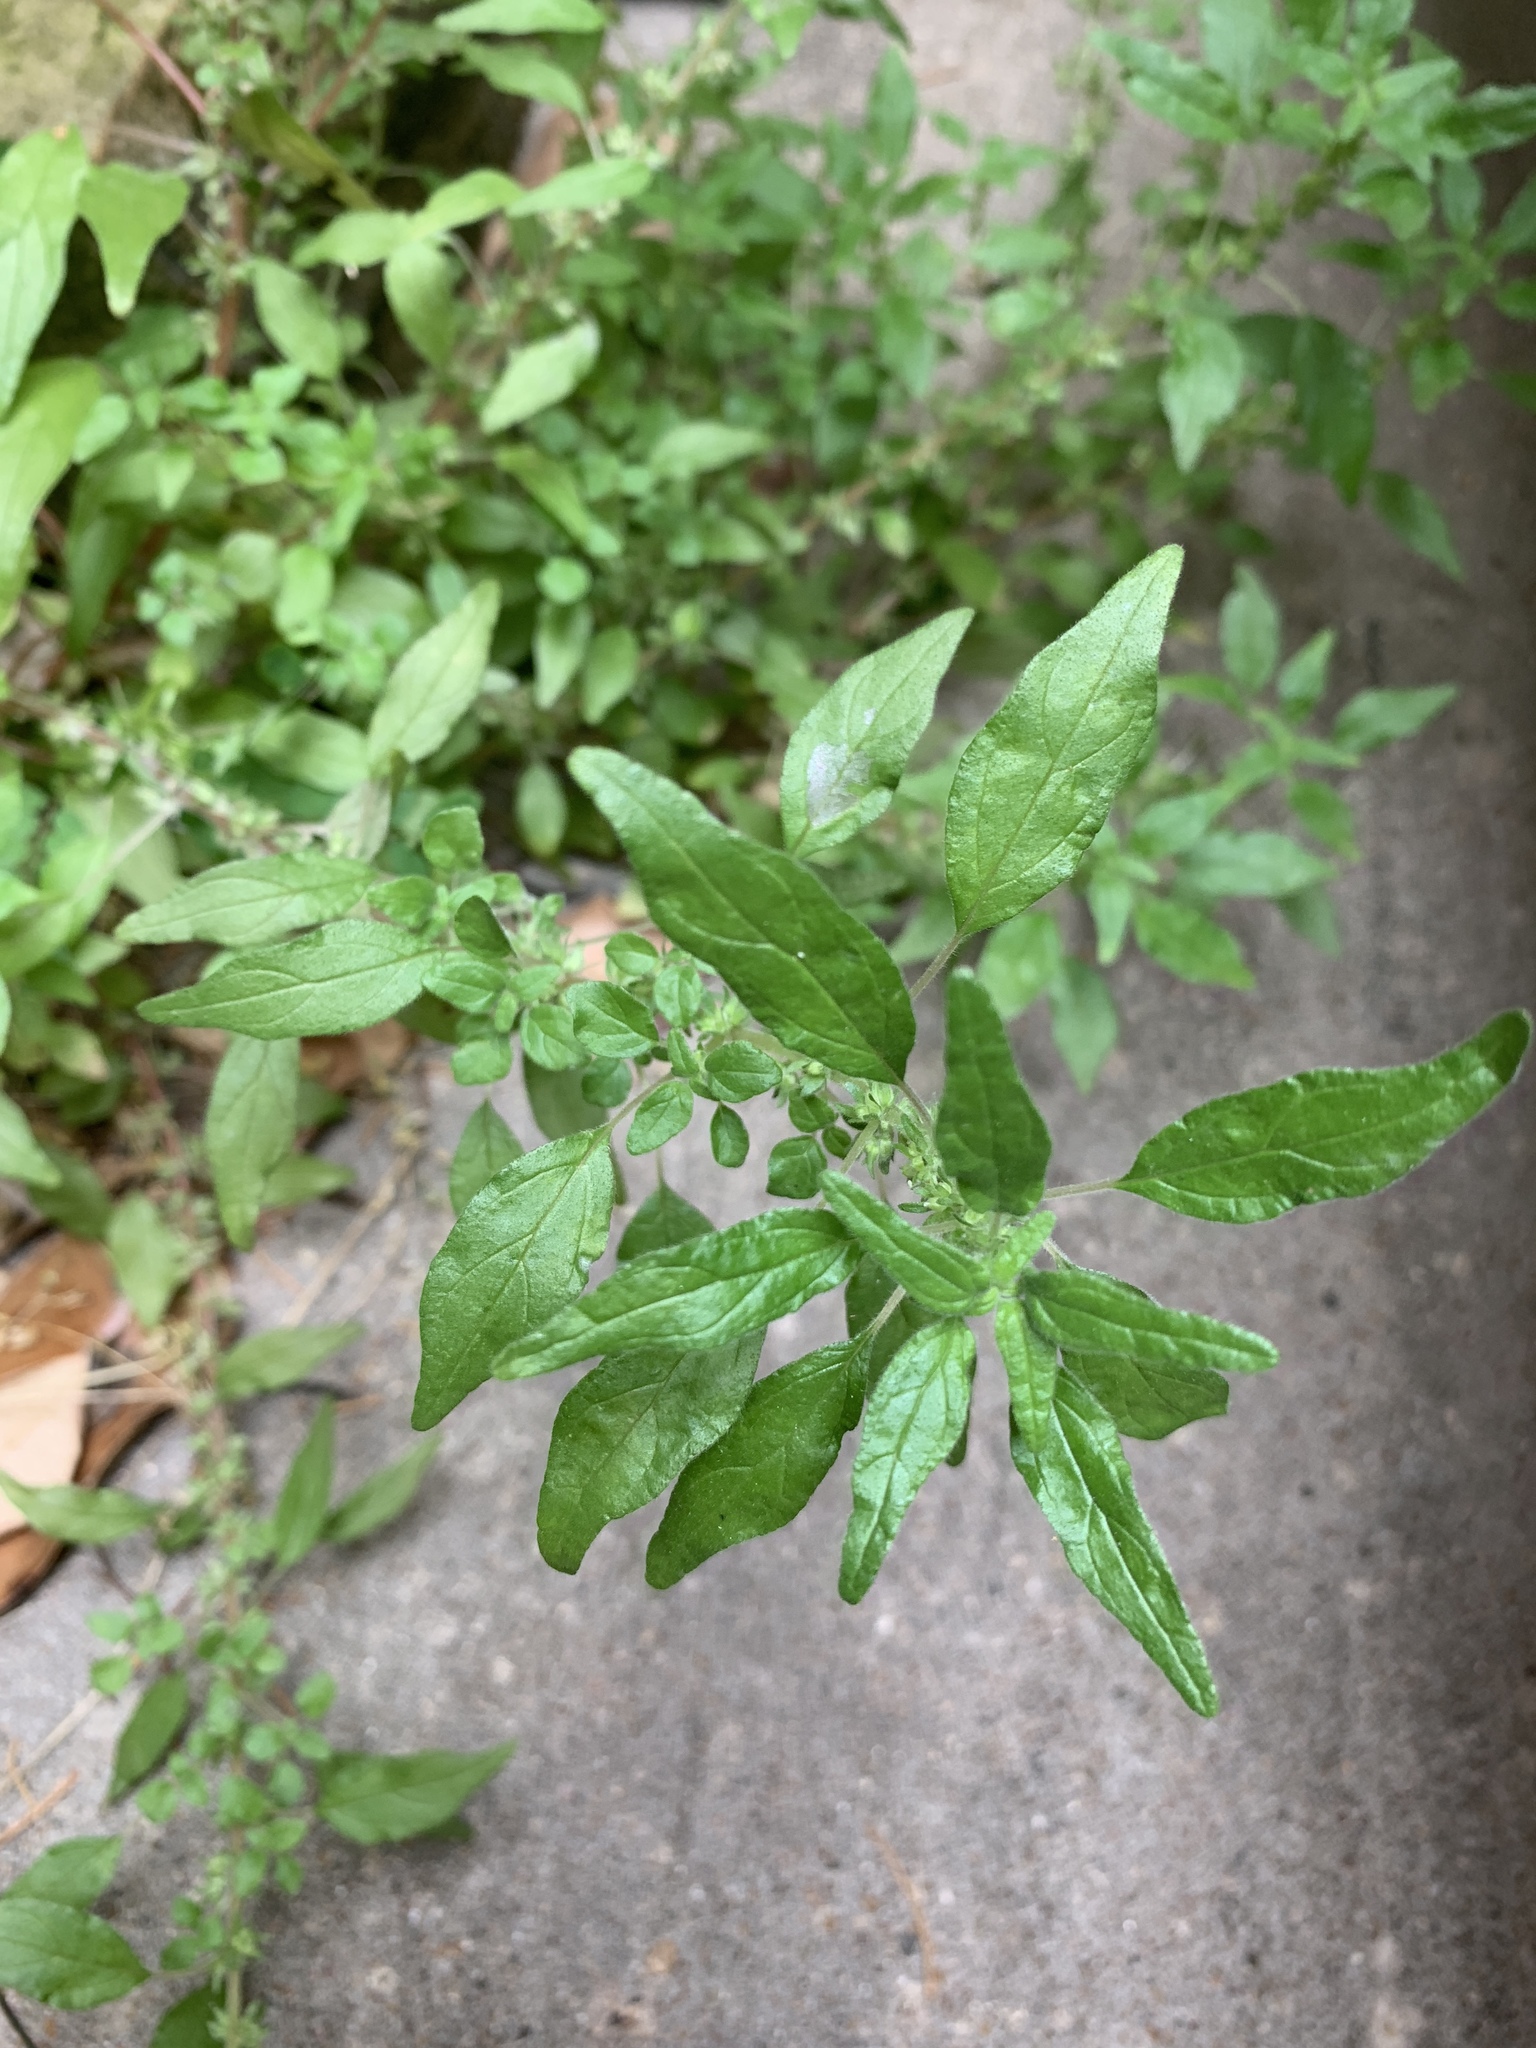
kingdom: Plantae
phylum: Tracheophyta
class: Magnoliopsida
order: Rosales
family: Urticaceae
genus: Parietaria
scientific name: Parietaria pensylvanica
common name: Pennsylvania pellitory
